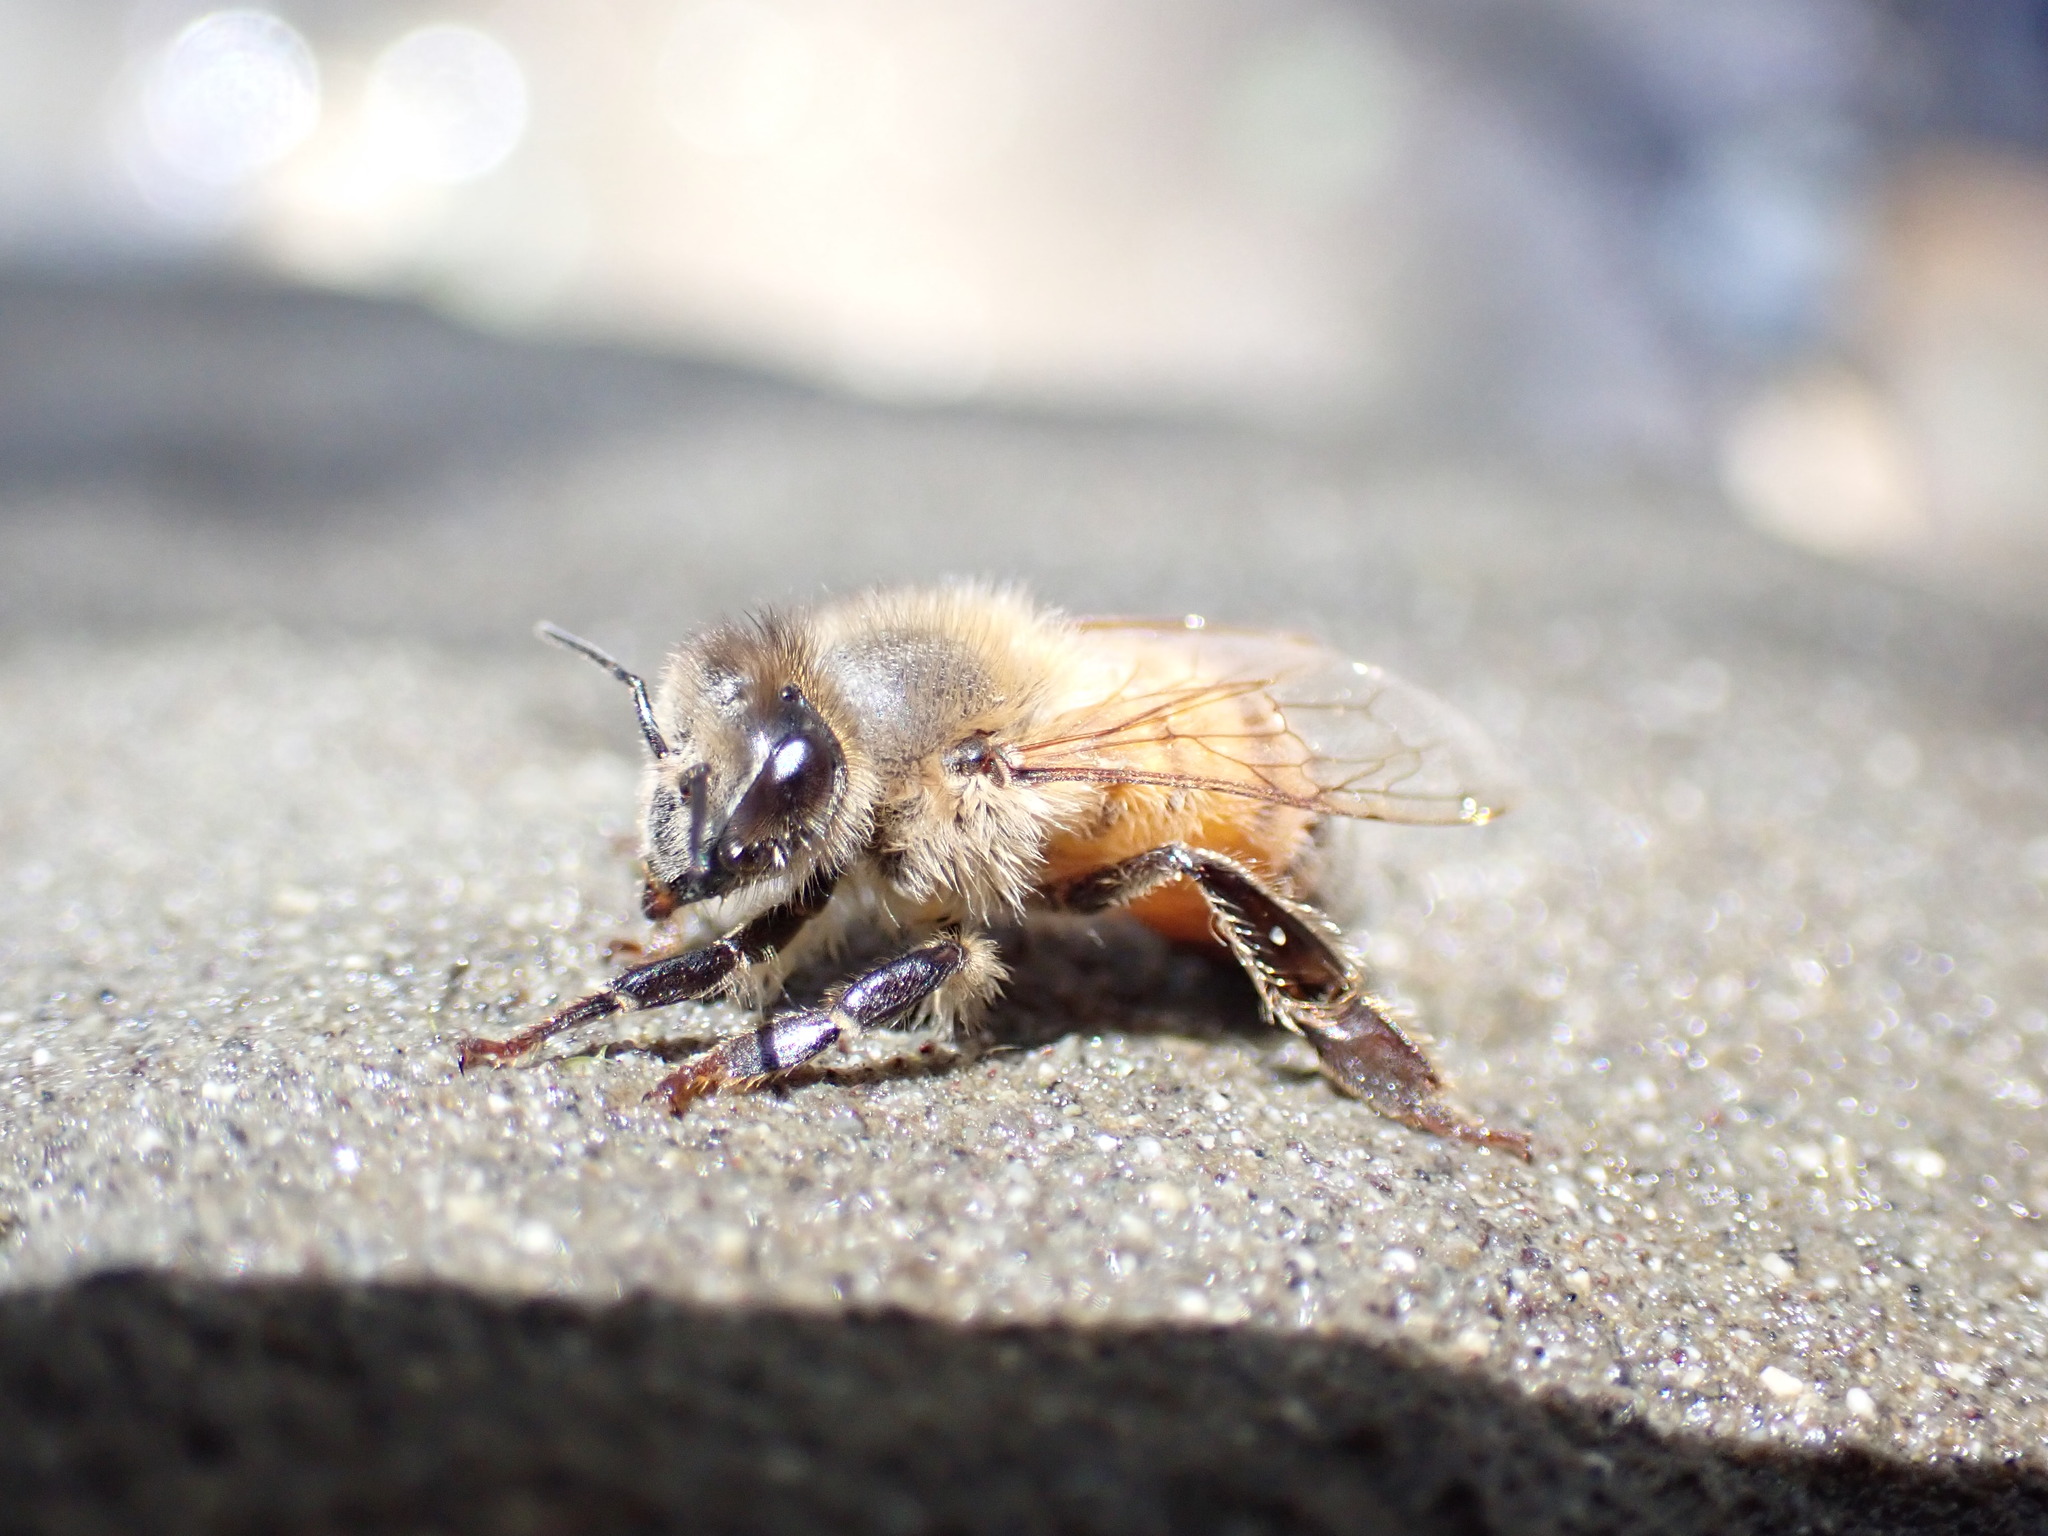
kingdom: Animalia
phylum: Arthropoda
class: Insecta
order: Hymenoptera
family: Apidae
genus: Apis
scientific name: Apis mellifera
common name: Honey bee
